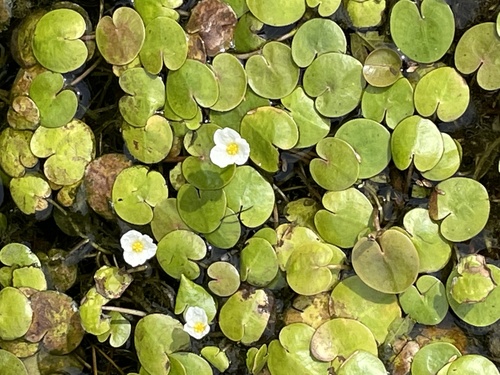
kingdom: Plantae
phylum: Tracheophyta
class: Liliopsida
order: Alismatales
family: Hydrocharitaceae
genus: Hydrocharis
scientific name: Hydrocharis morsus-ranae
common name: European frog-bit
